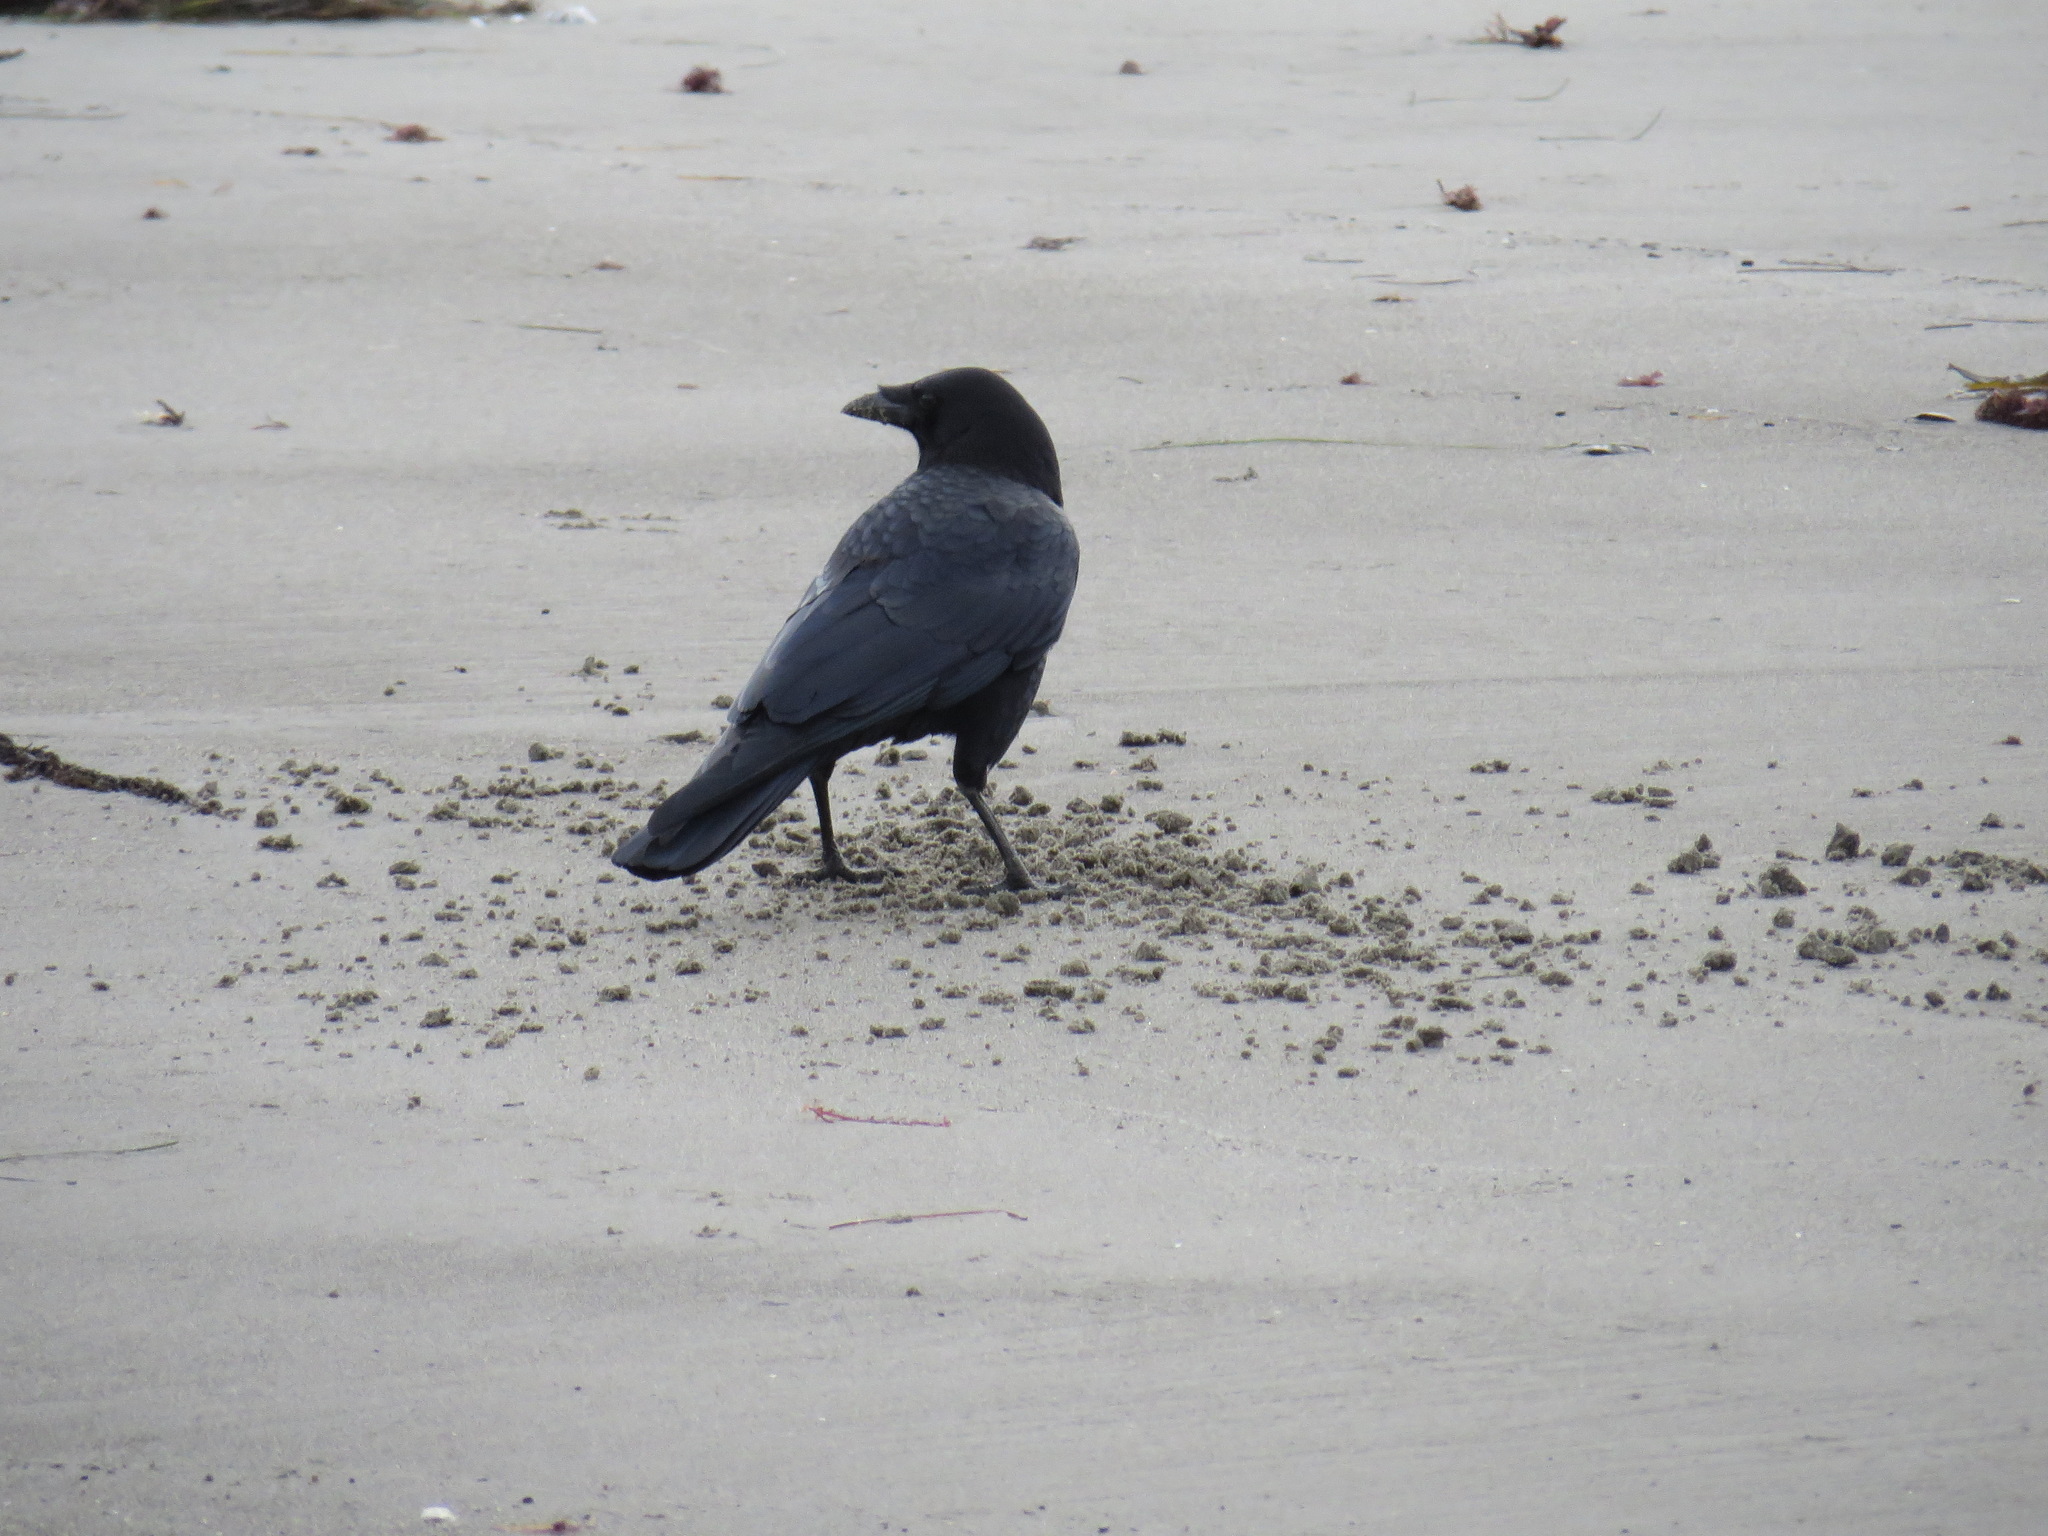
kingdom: Animalia
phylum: Chordata
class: Aves
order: Passeriformes
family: Corvidae
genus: Corvus
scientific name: Corvus brachyrhynchos
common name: American crow
